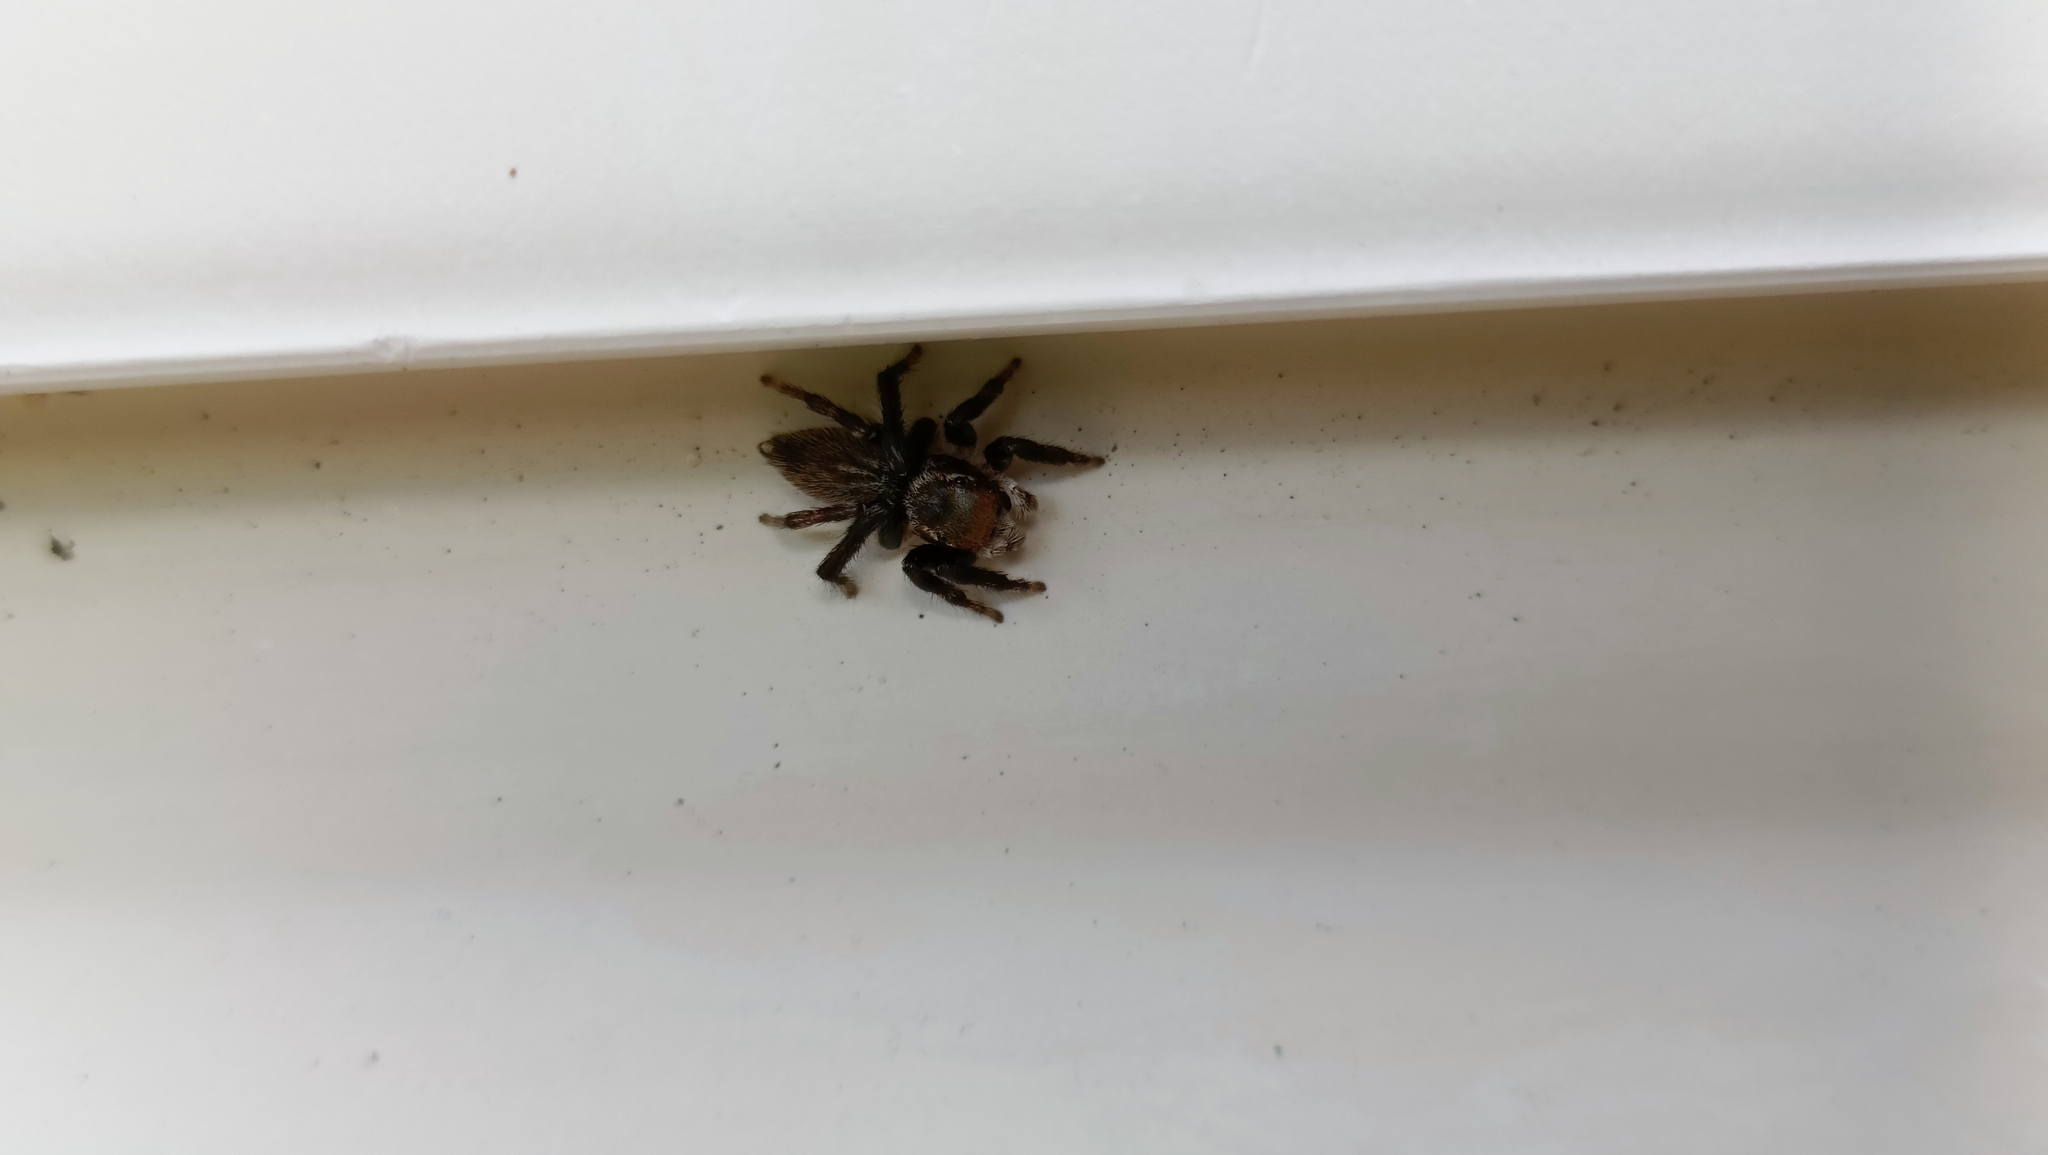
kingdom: Animalia
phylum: Arthropoda
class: Arachnida
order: Araneae
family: Salticidae
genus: Maratus
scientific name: Maratus griseus
